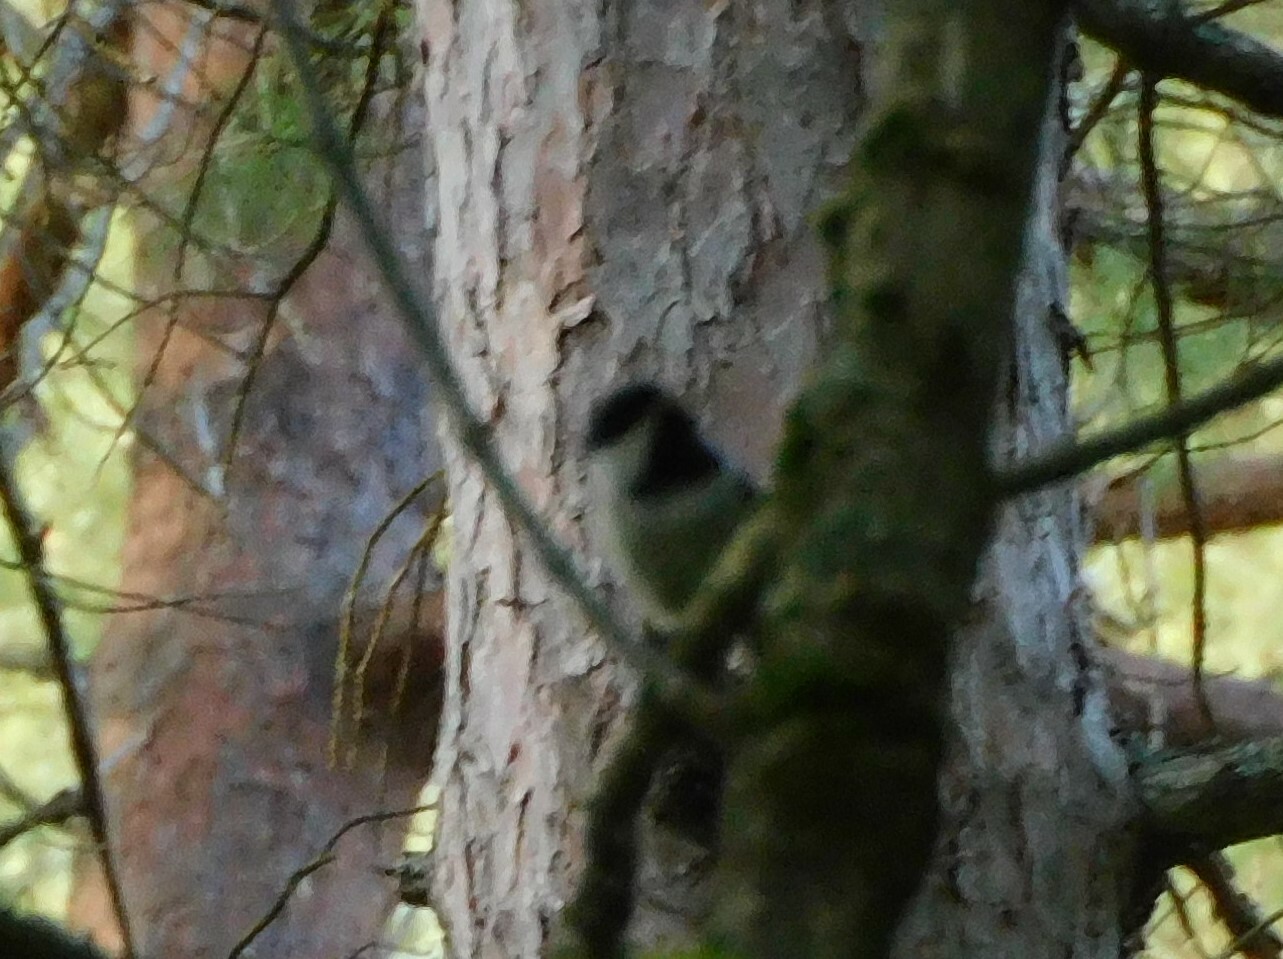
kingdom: Animalia
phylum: Chordata
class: Aves
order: Passeriformes
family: Paridae
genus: Poecile
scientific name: Poecile atricapillus
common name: Black-capped chickadee
